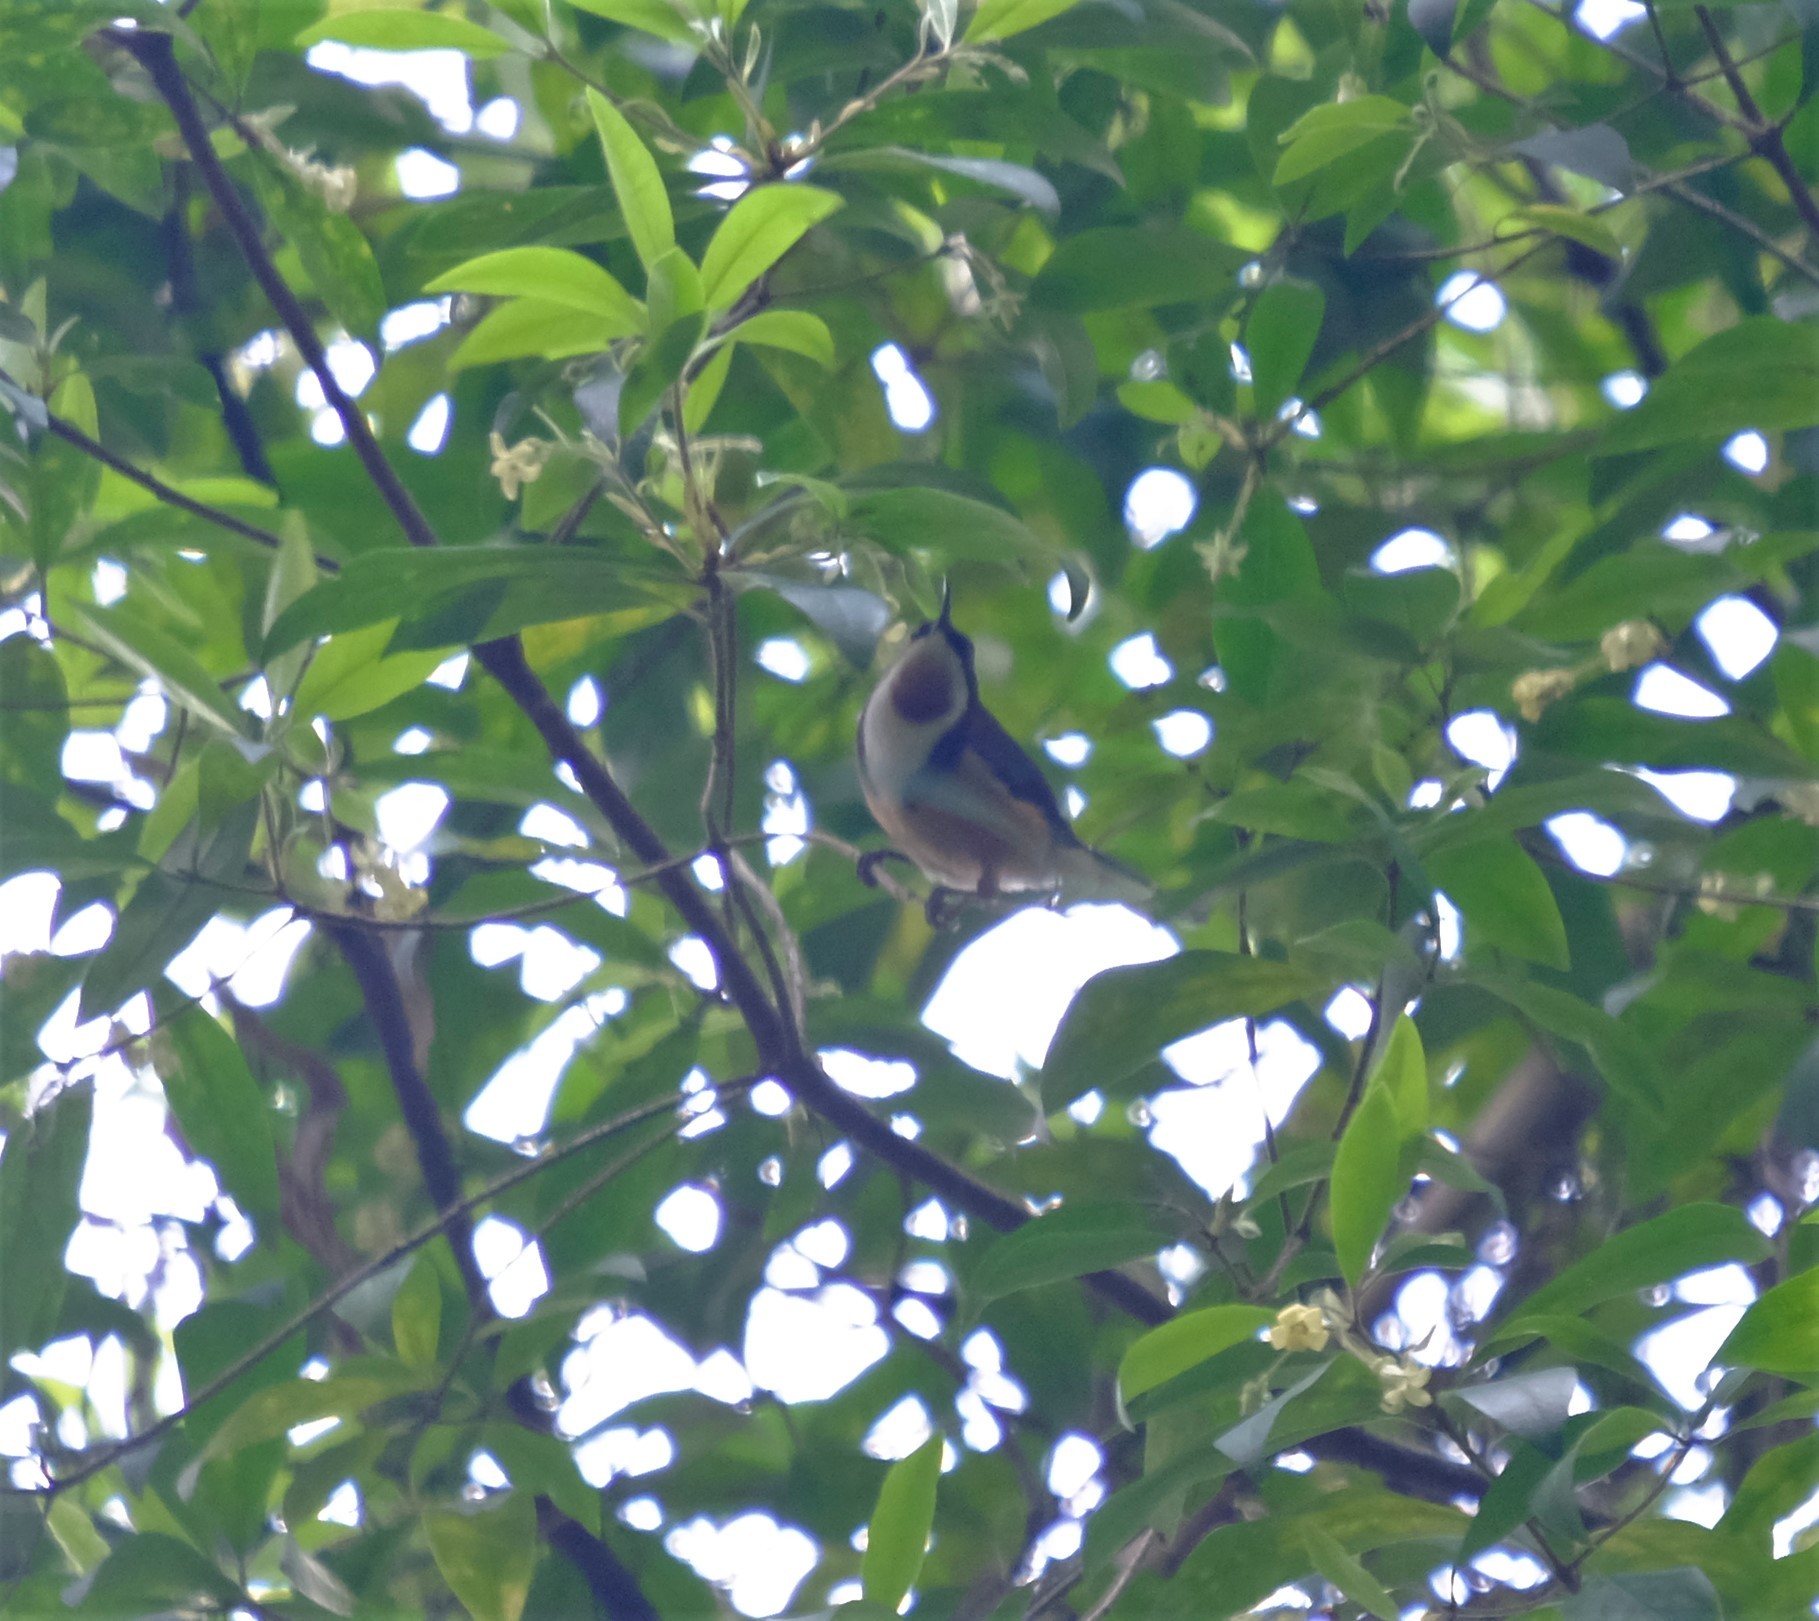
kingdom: Animalia
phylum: Chordata
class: Aves
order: Passeriformes
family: Meliphagidae
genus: Acanthorhynchus
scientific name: Acanthorhynchus tenuirostris
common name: Eastern spinebill
